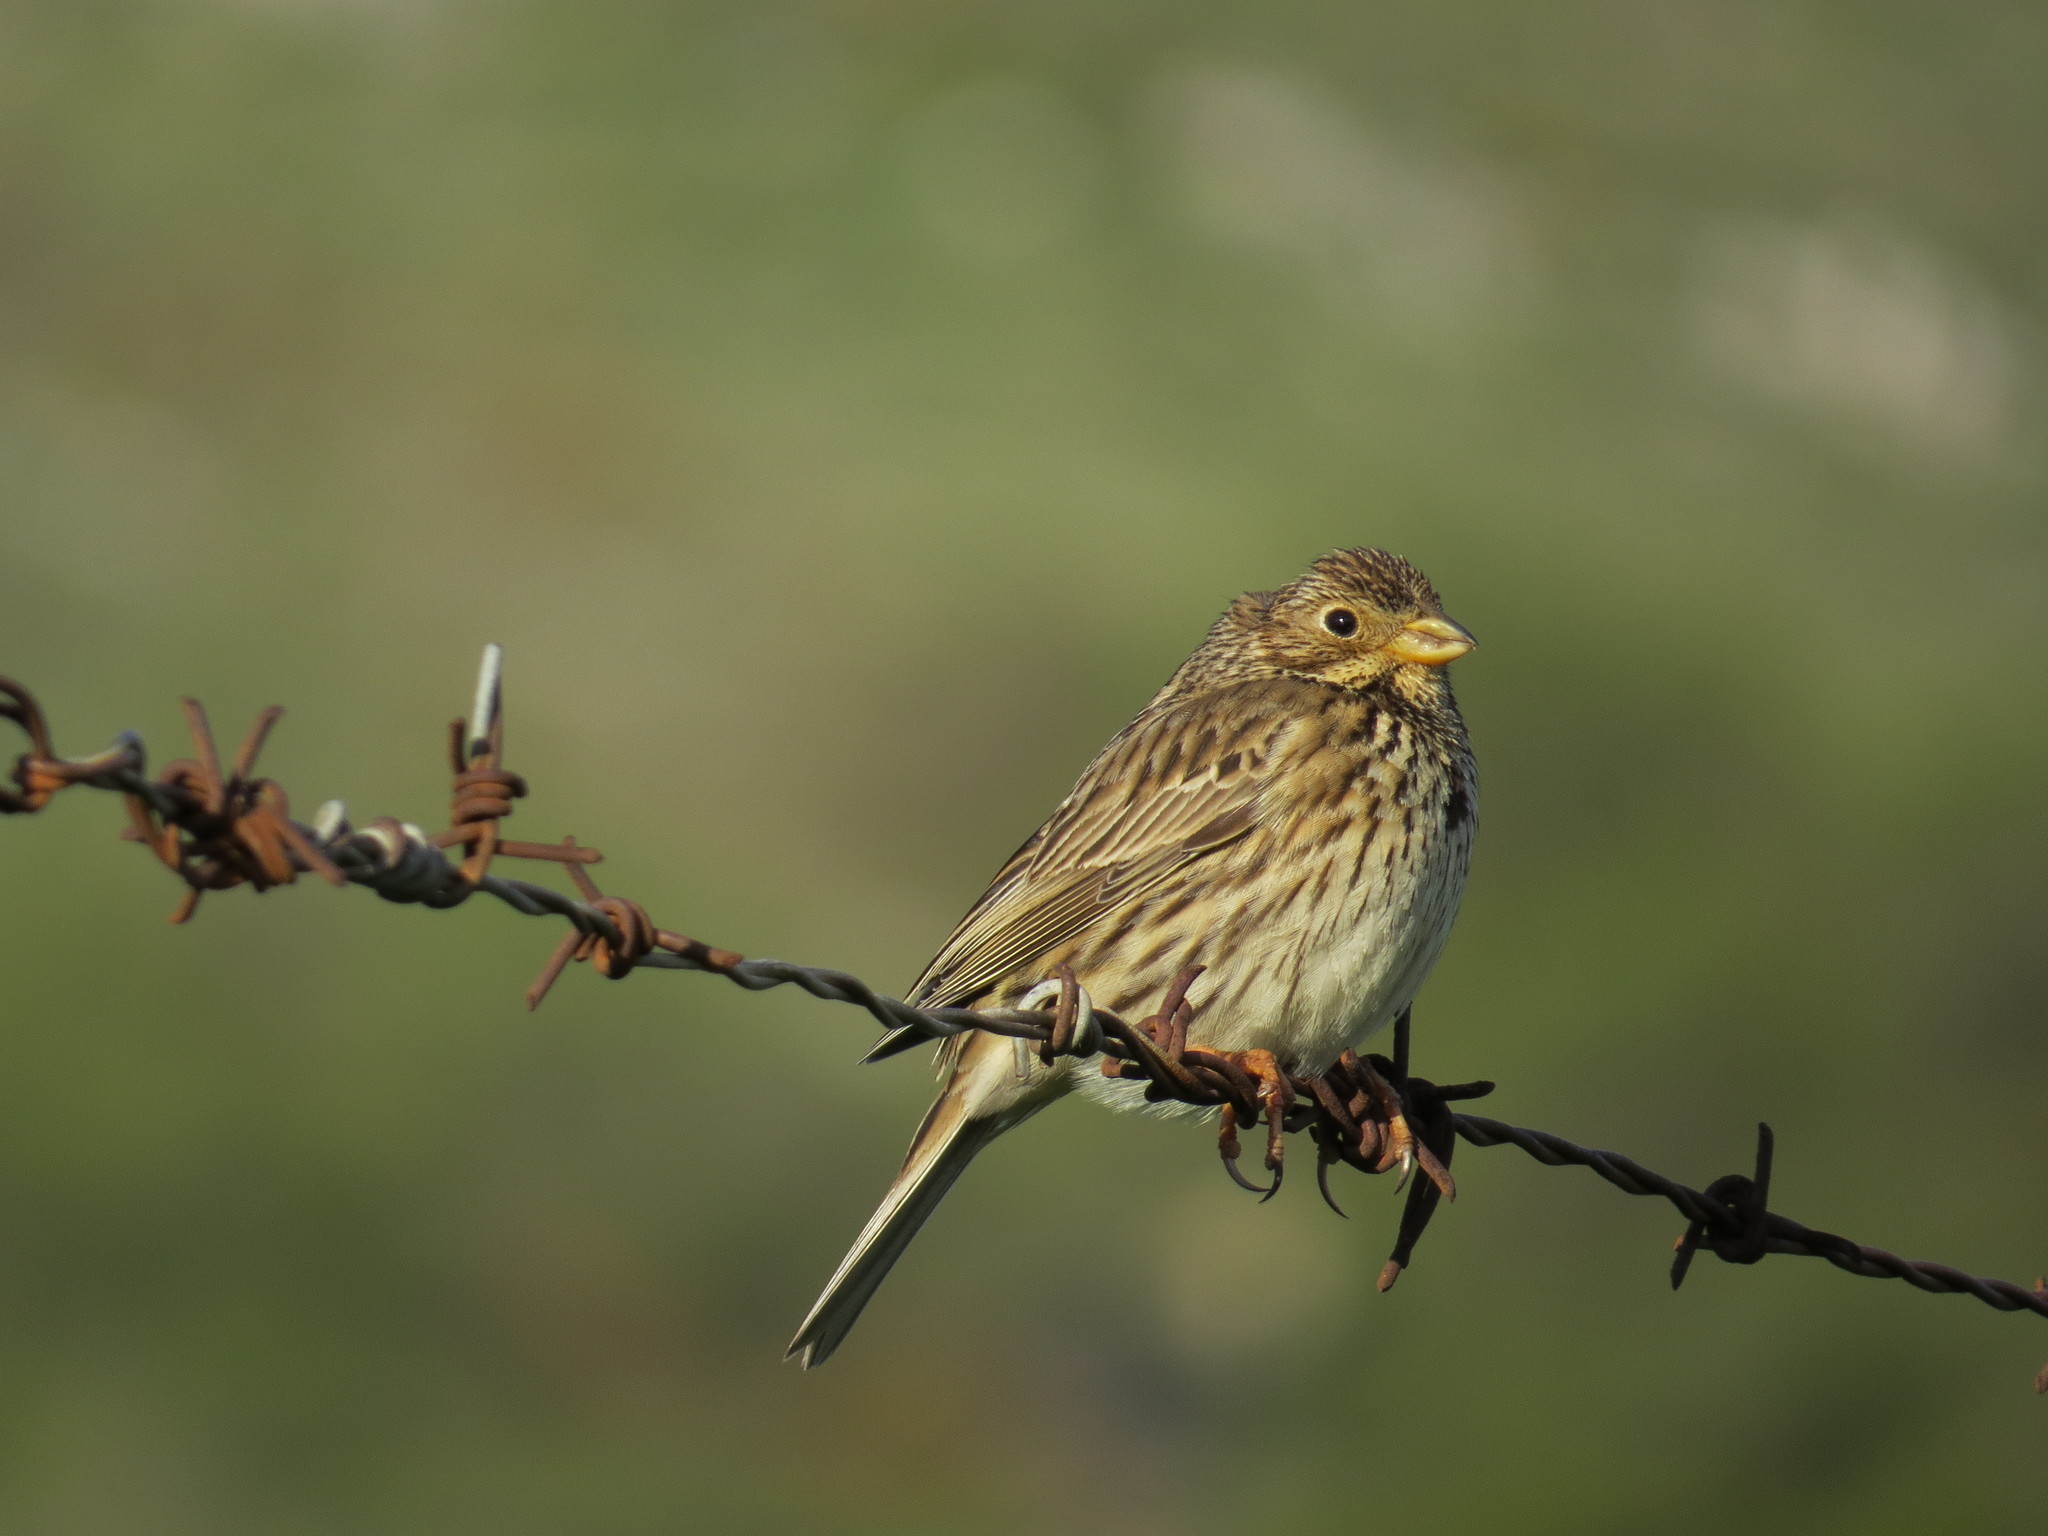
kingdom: Animalia
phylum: Chordata
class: Aves
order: Passeriformes
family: Emberizidae
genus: Emberiza
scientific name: Emberiza calandra
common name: Corn bunting
